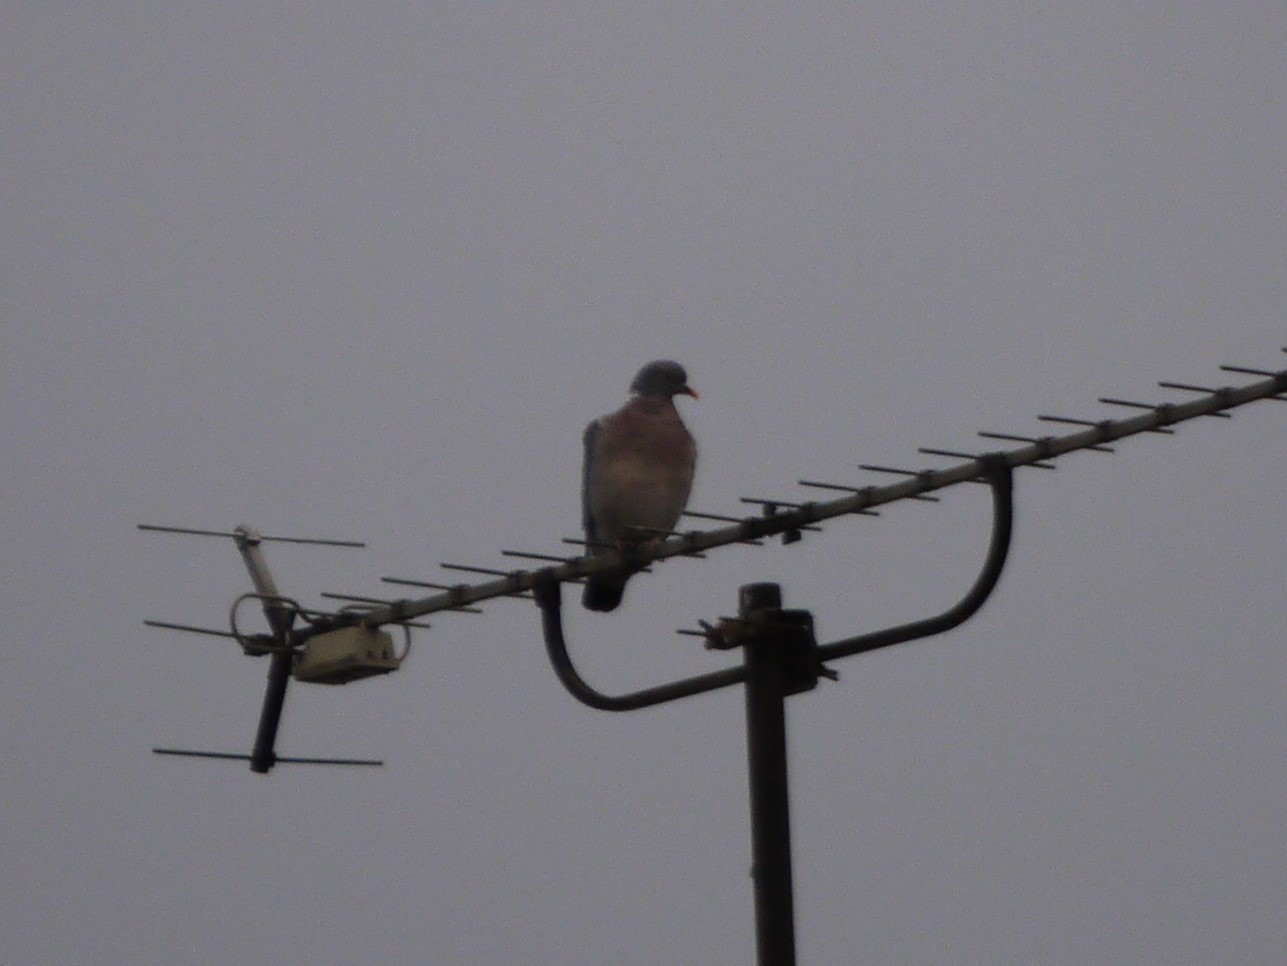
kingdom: Animalia
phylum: Chordata
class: Aves
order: Columbiformes
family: Columbidae
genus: Columba
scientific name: Columba palumbus
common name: Common wood pigeon
